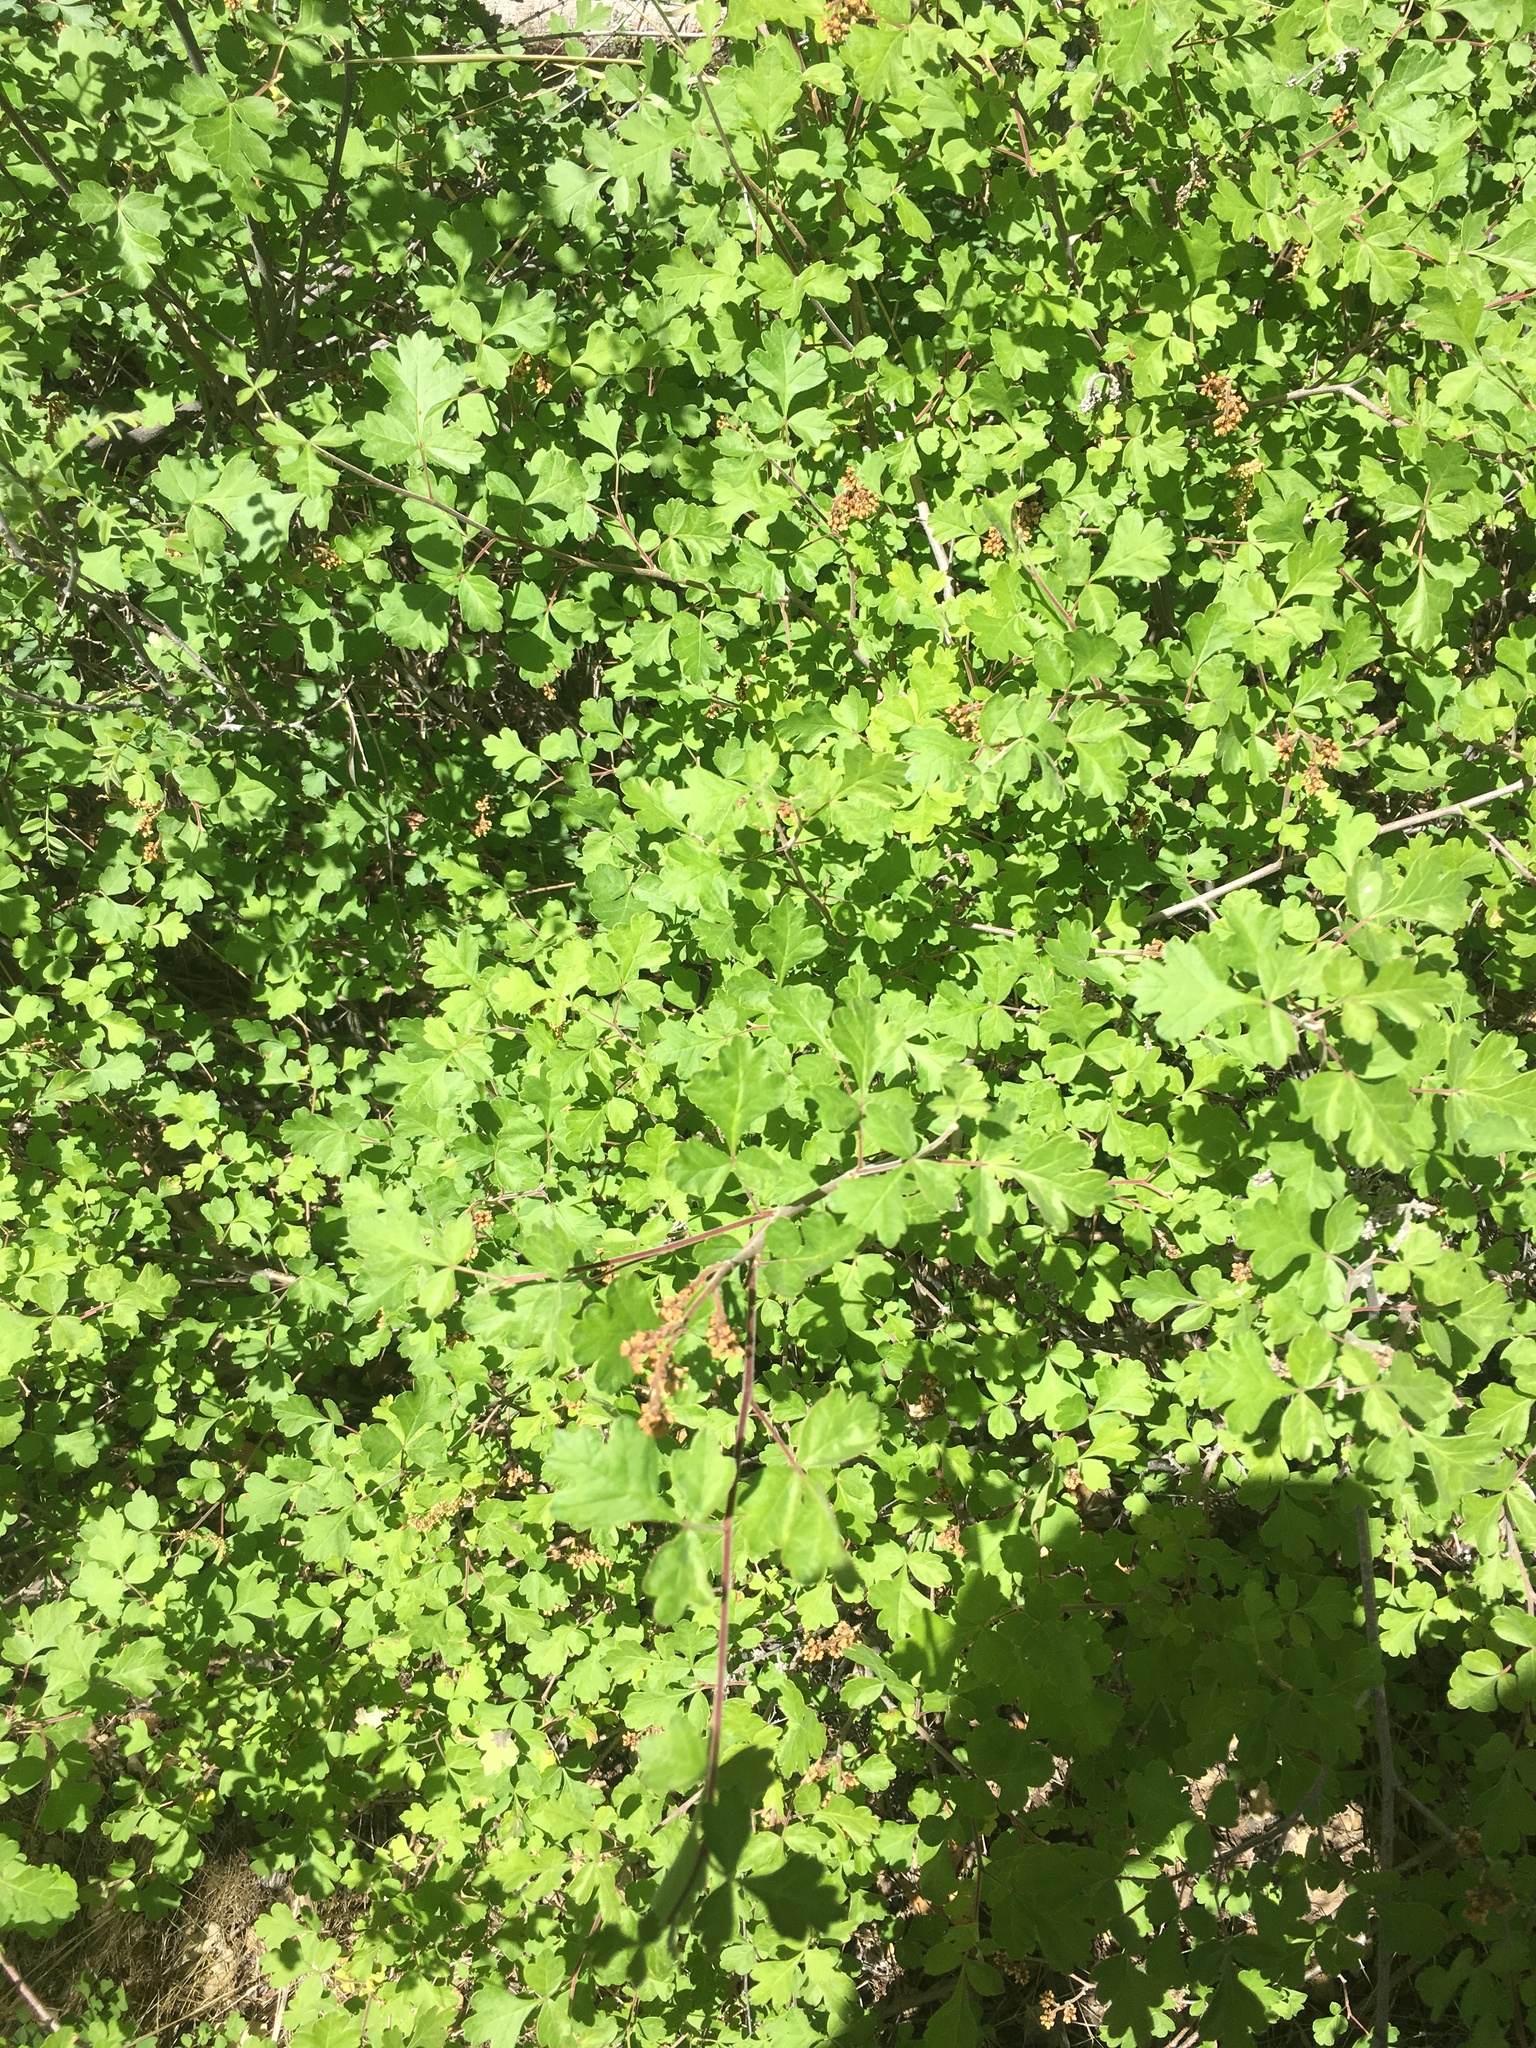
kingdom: Plantae
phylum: Tracheophyta
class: Magnoliopsida
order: Sapindales
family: Anacardiaceae
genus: Rhus
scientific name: Rhus trilobata
